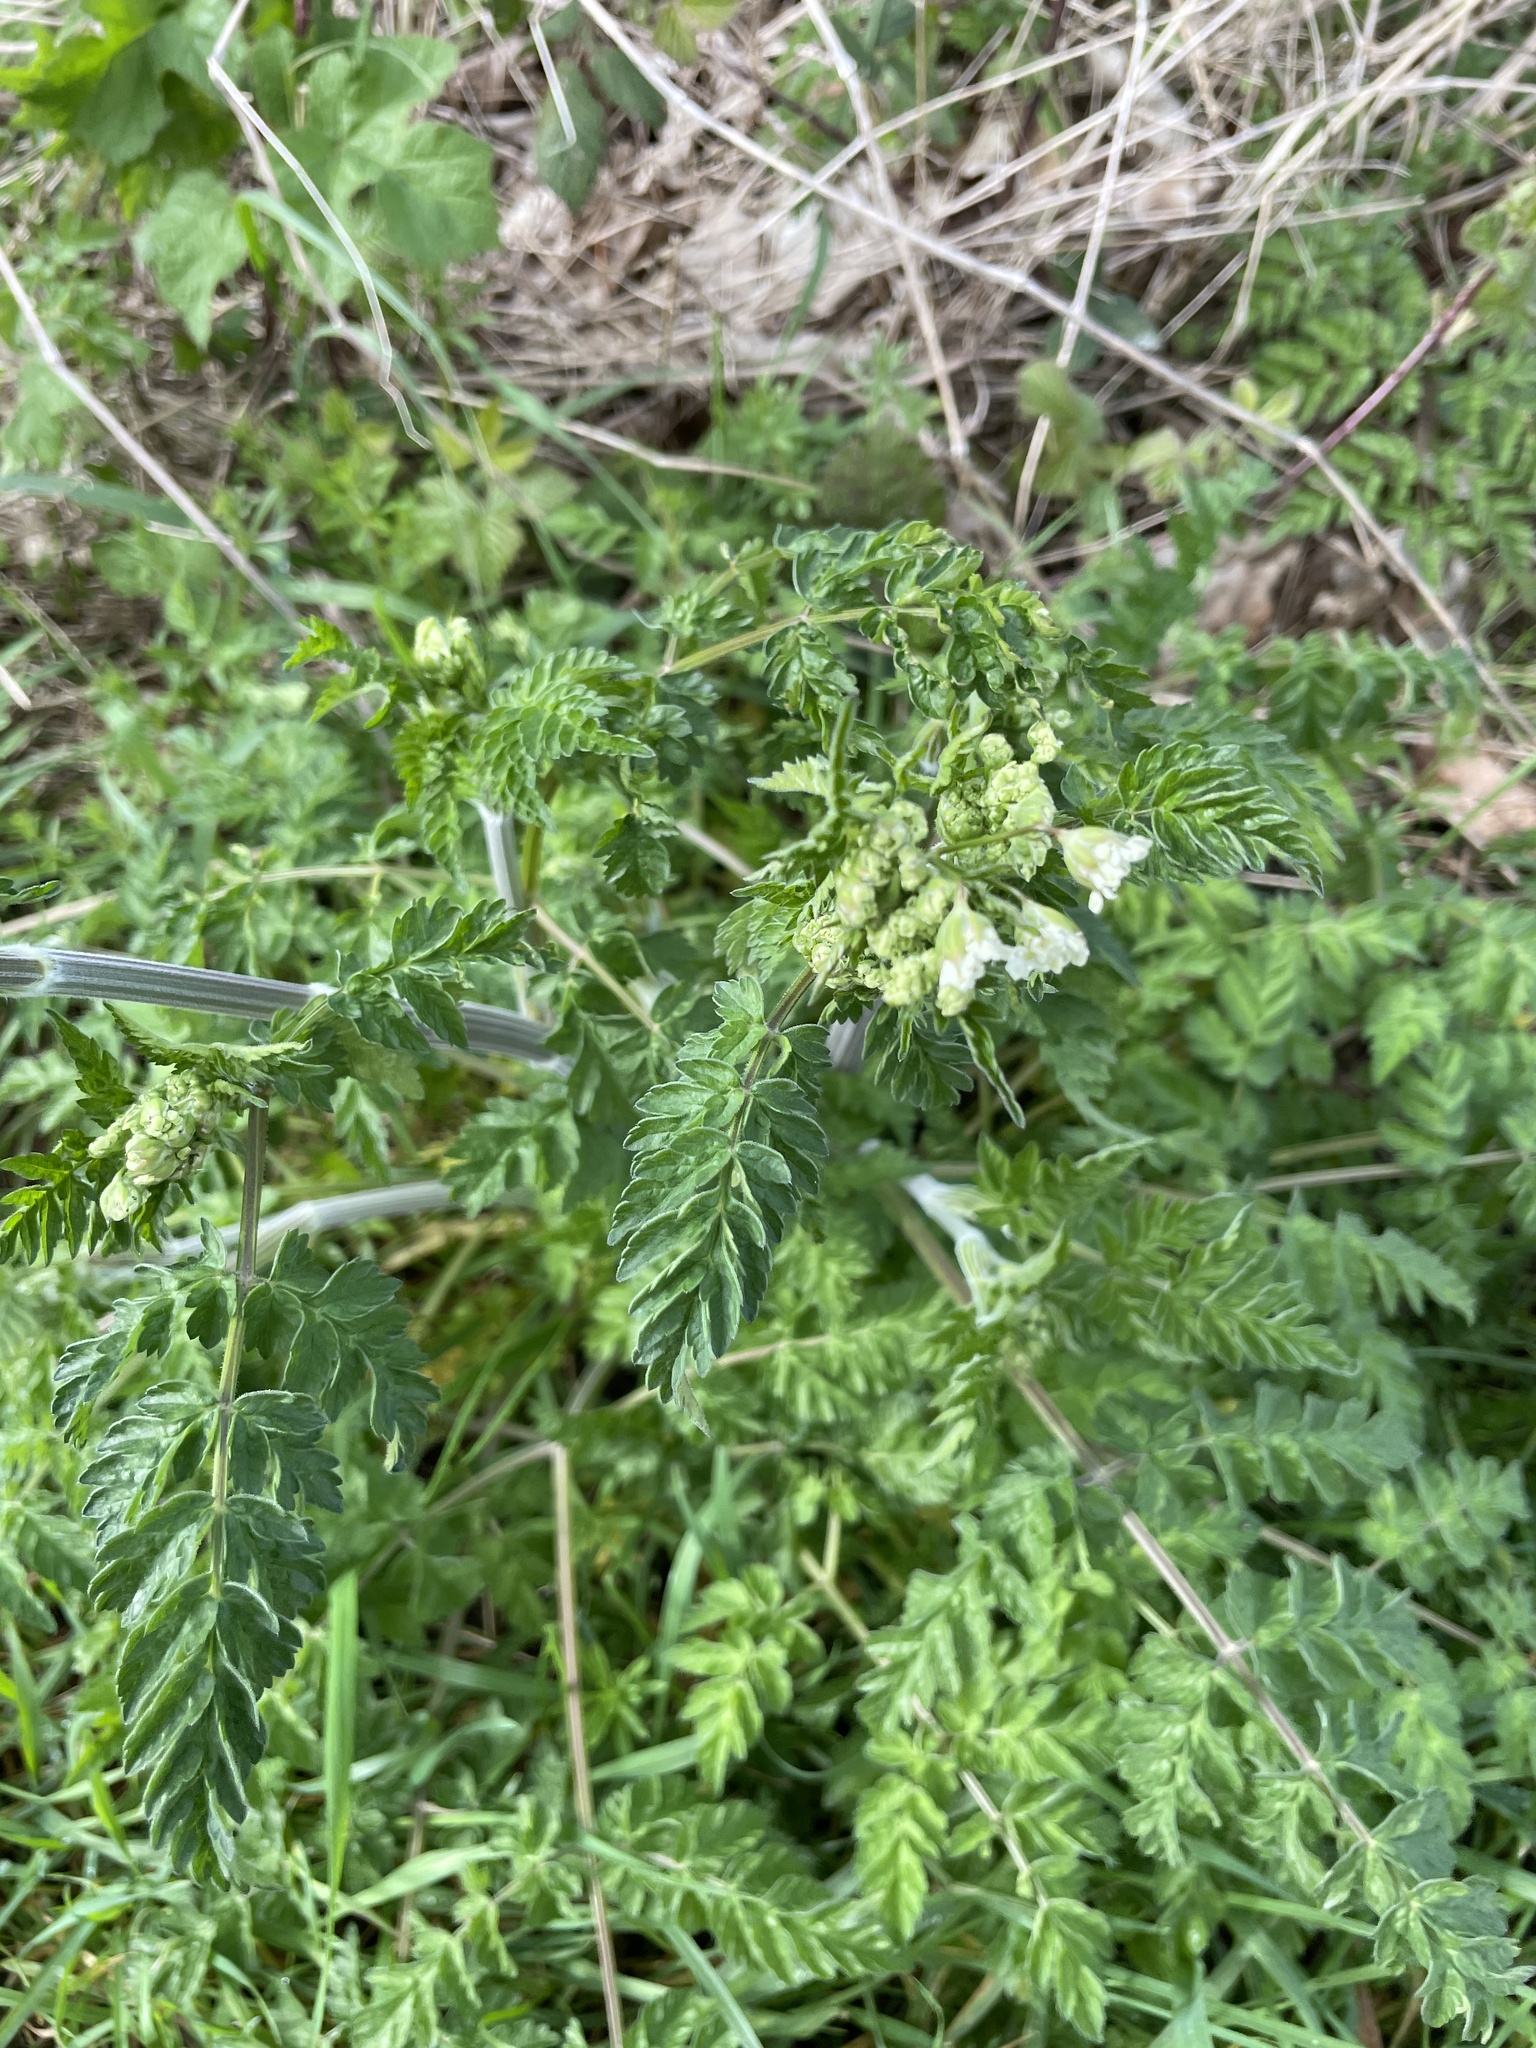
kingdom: Plantae
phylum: Tracheophyta
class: Magnoliopsida
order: Apiales
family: Apiaceae
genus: Anthriscus
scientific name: Anthriscus sylvestris
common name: Cow parsley
